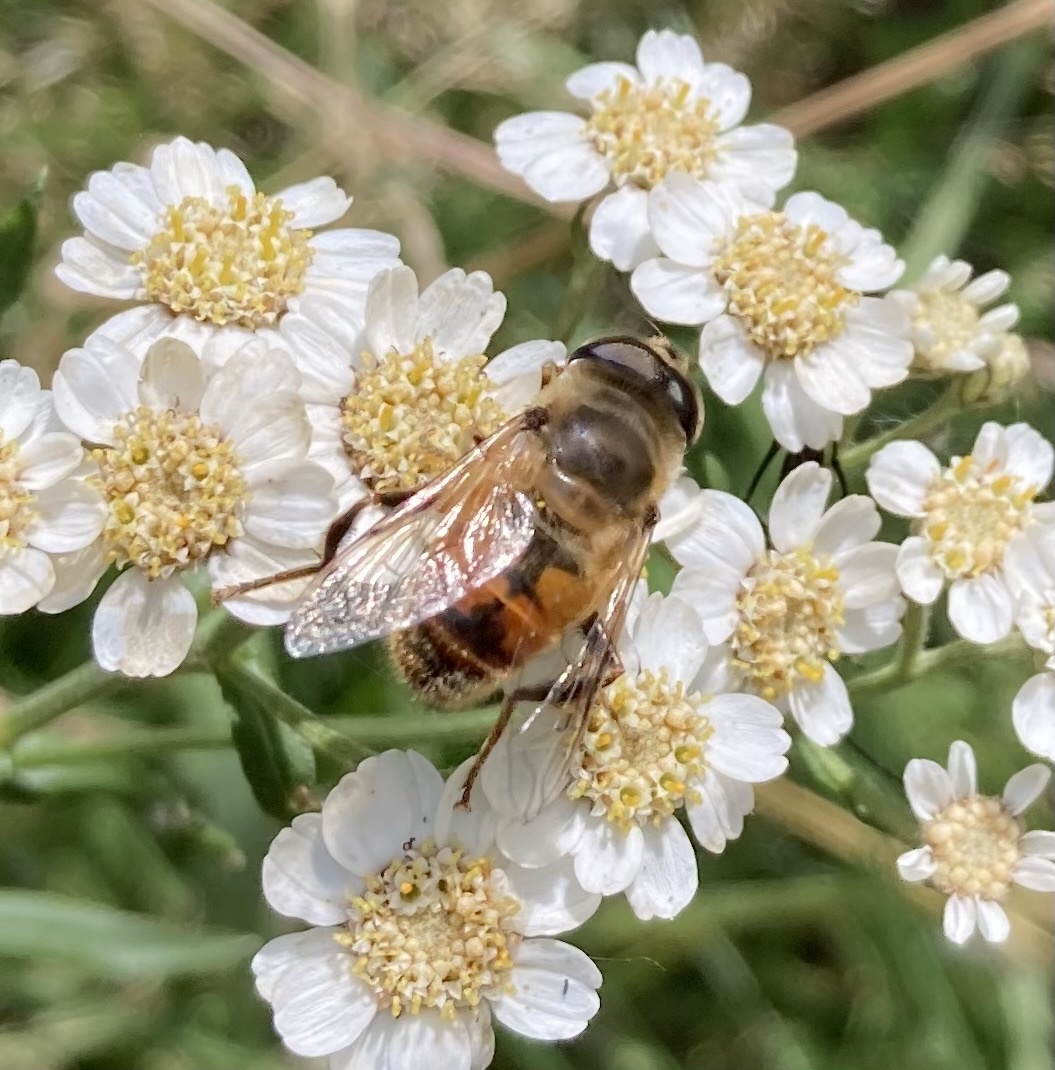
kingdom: Animalia
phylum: Arthropoda
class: Insecta
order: Diptera
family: Syrphidae
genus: Eristalis
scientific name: Eristalis tenax
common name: Drone fly
